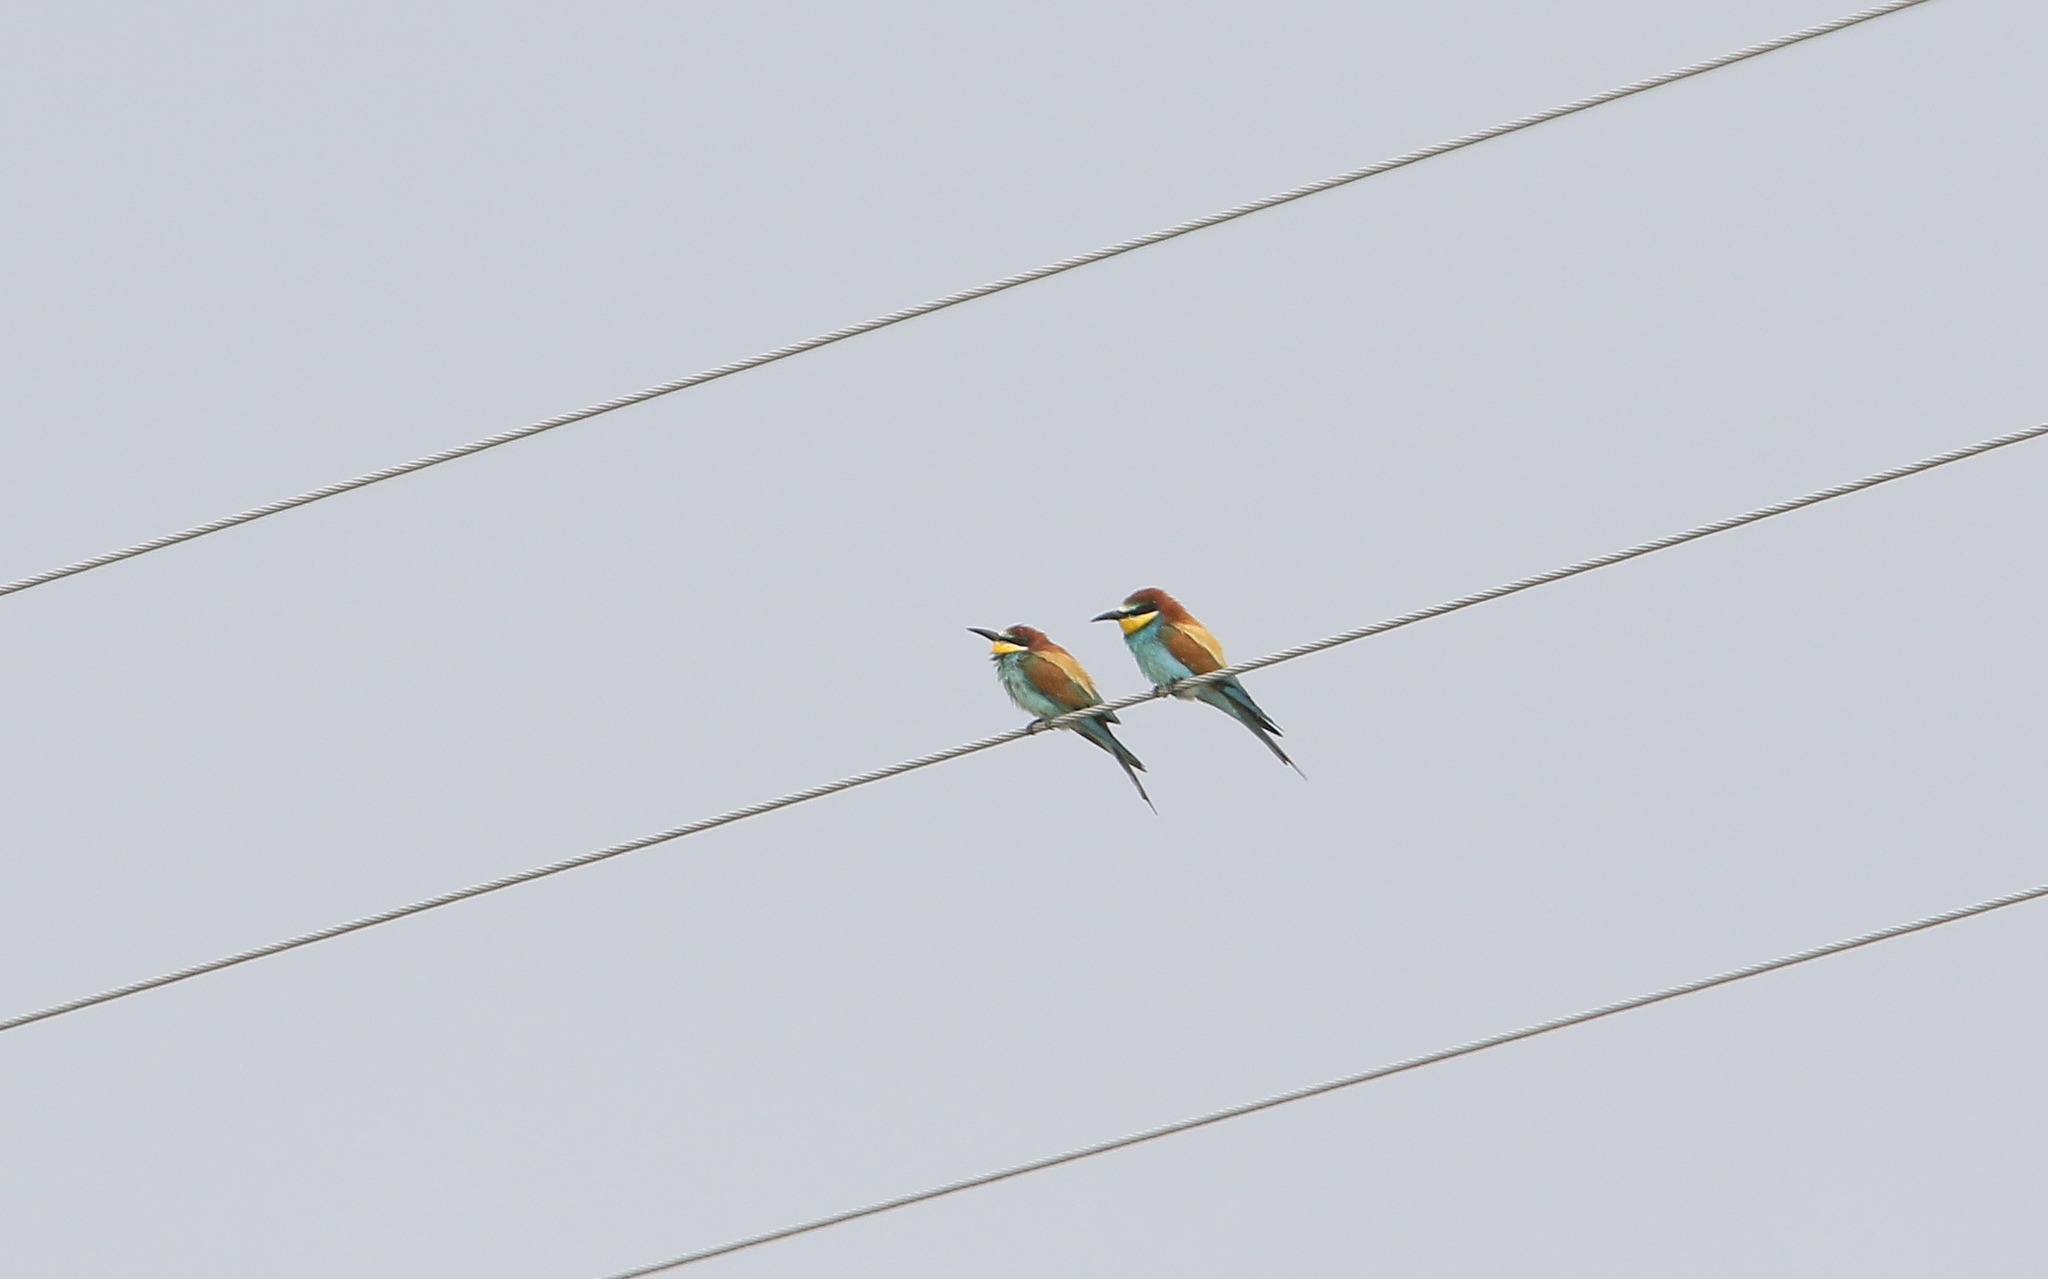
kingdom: Animalia
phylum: Chordata
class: Aves
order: Coraciiformes
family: Meropidae
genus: Merops
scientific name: Merops apiaster
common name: European bee-eater
